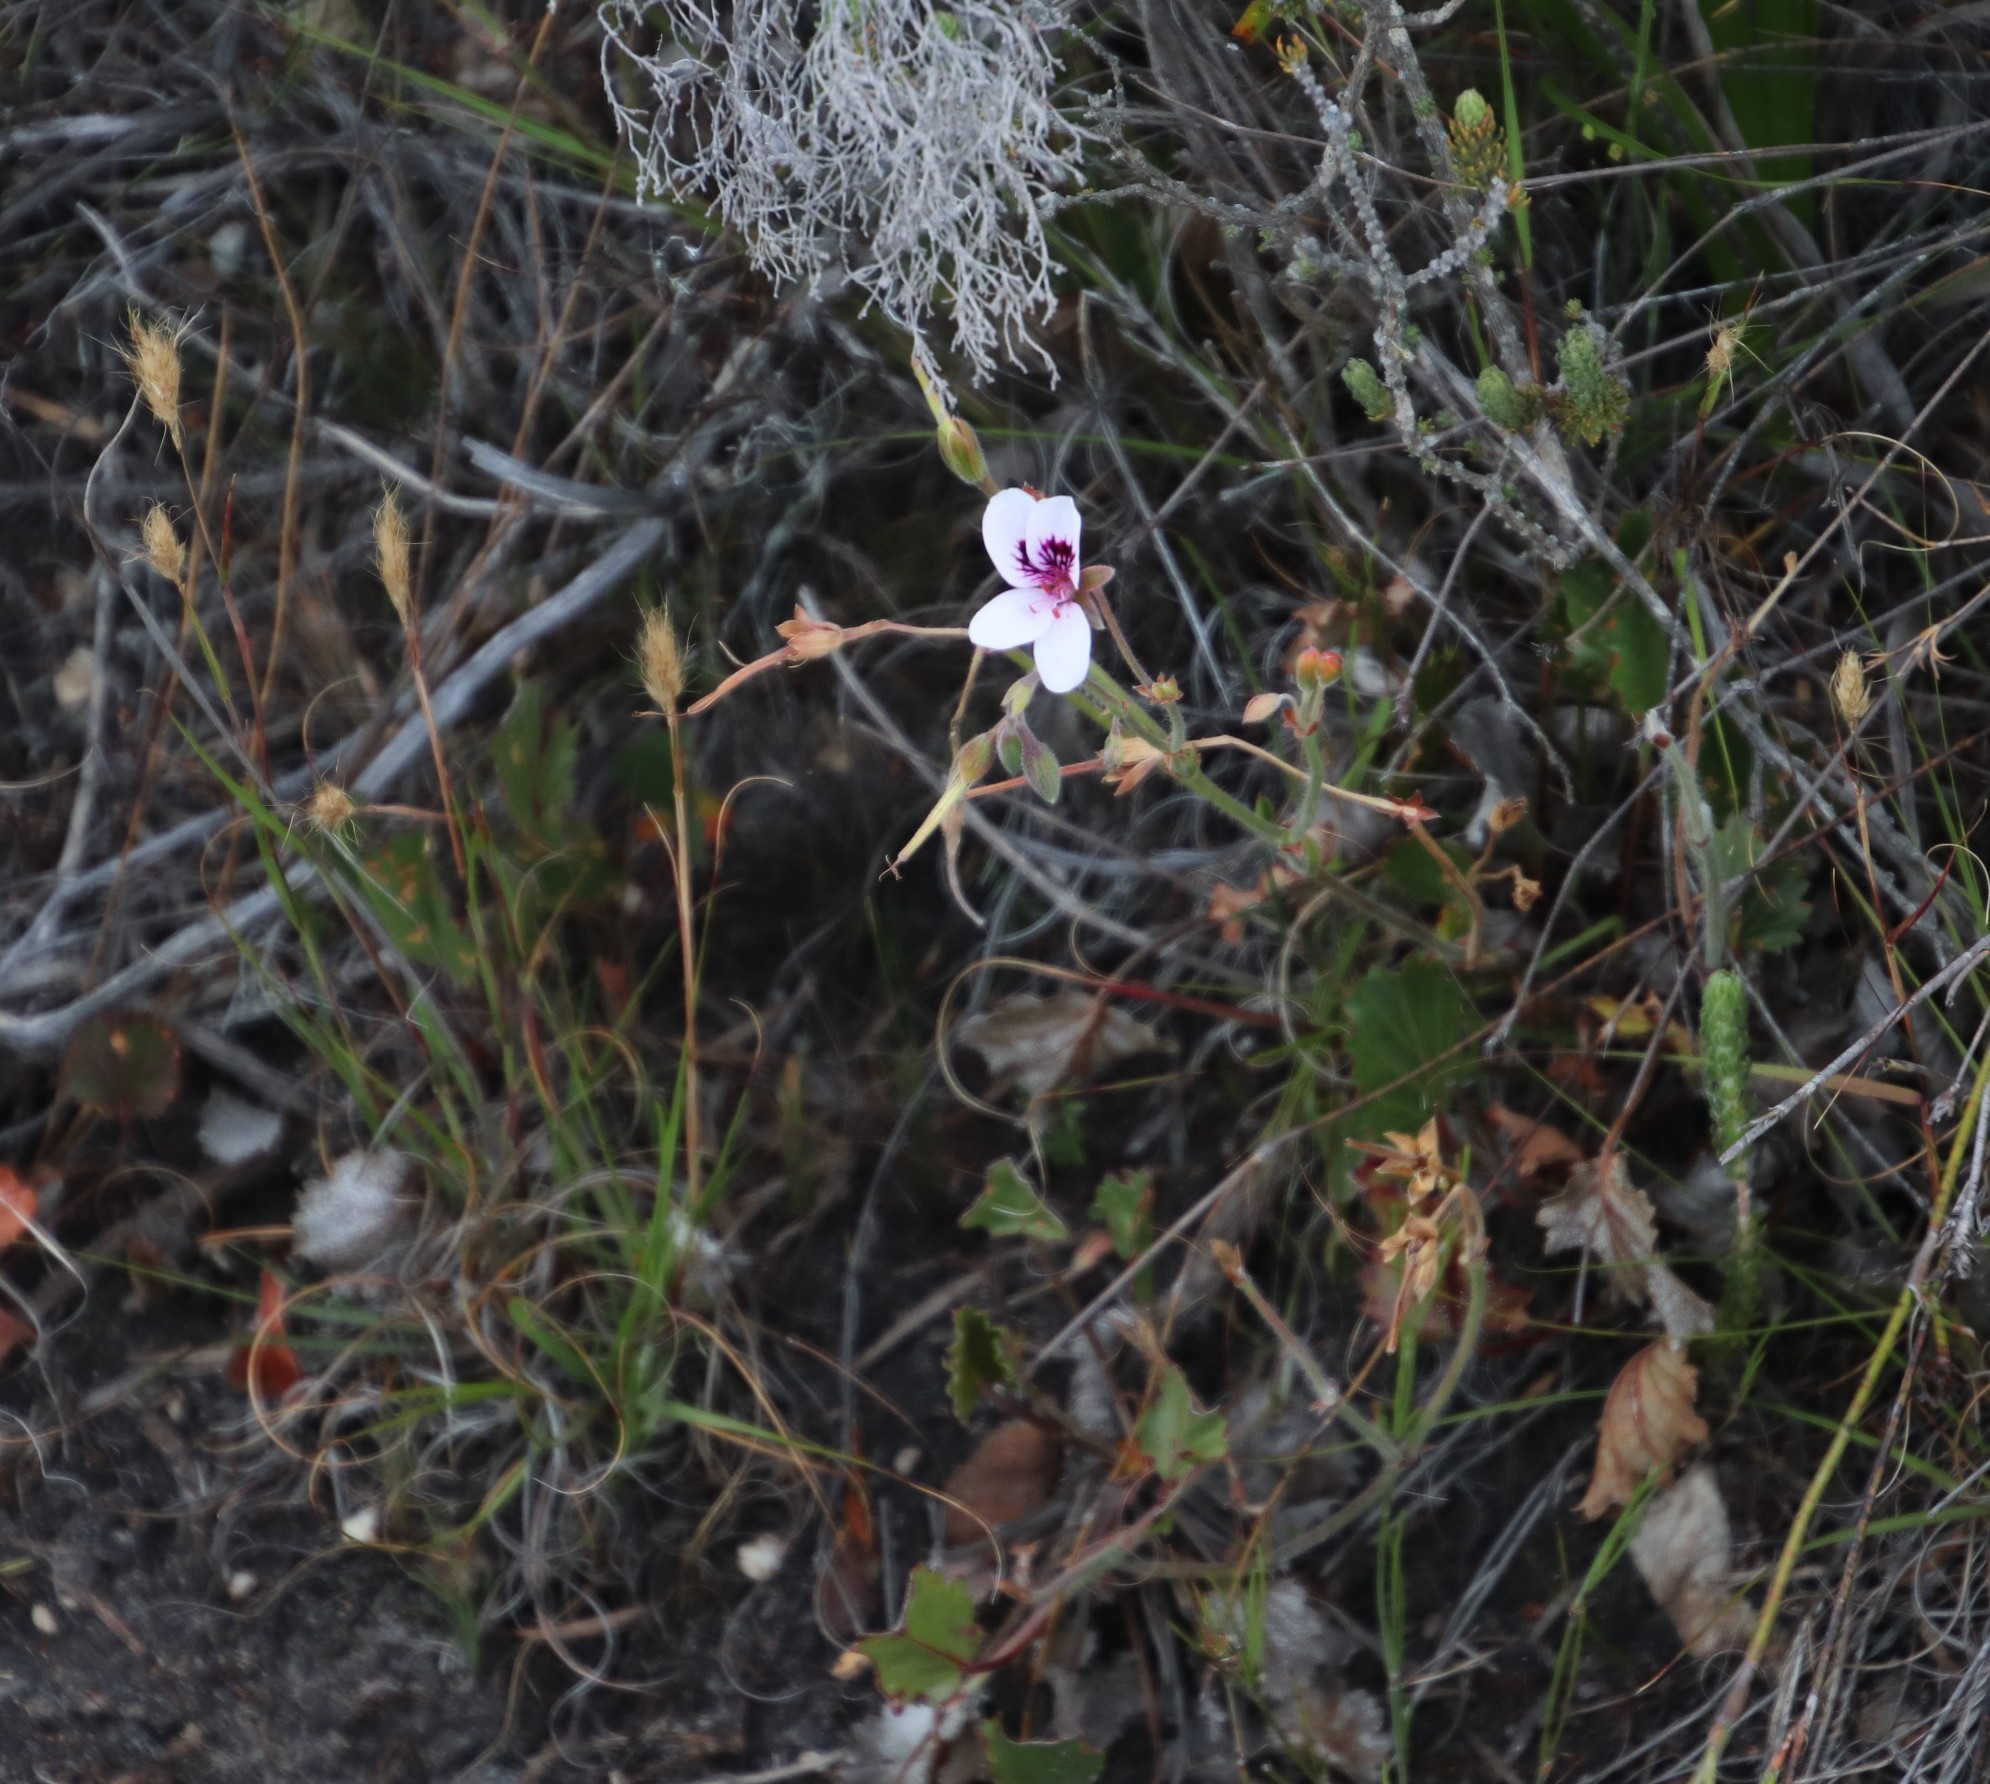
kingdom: Plantae
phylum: Tracheophyta
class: Magnoliopsida
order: Geraniales
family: Geraniaceae
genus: Pelargonium
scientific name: Pelargonium elegans
